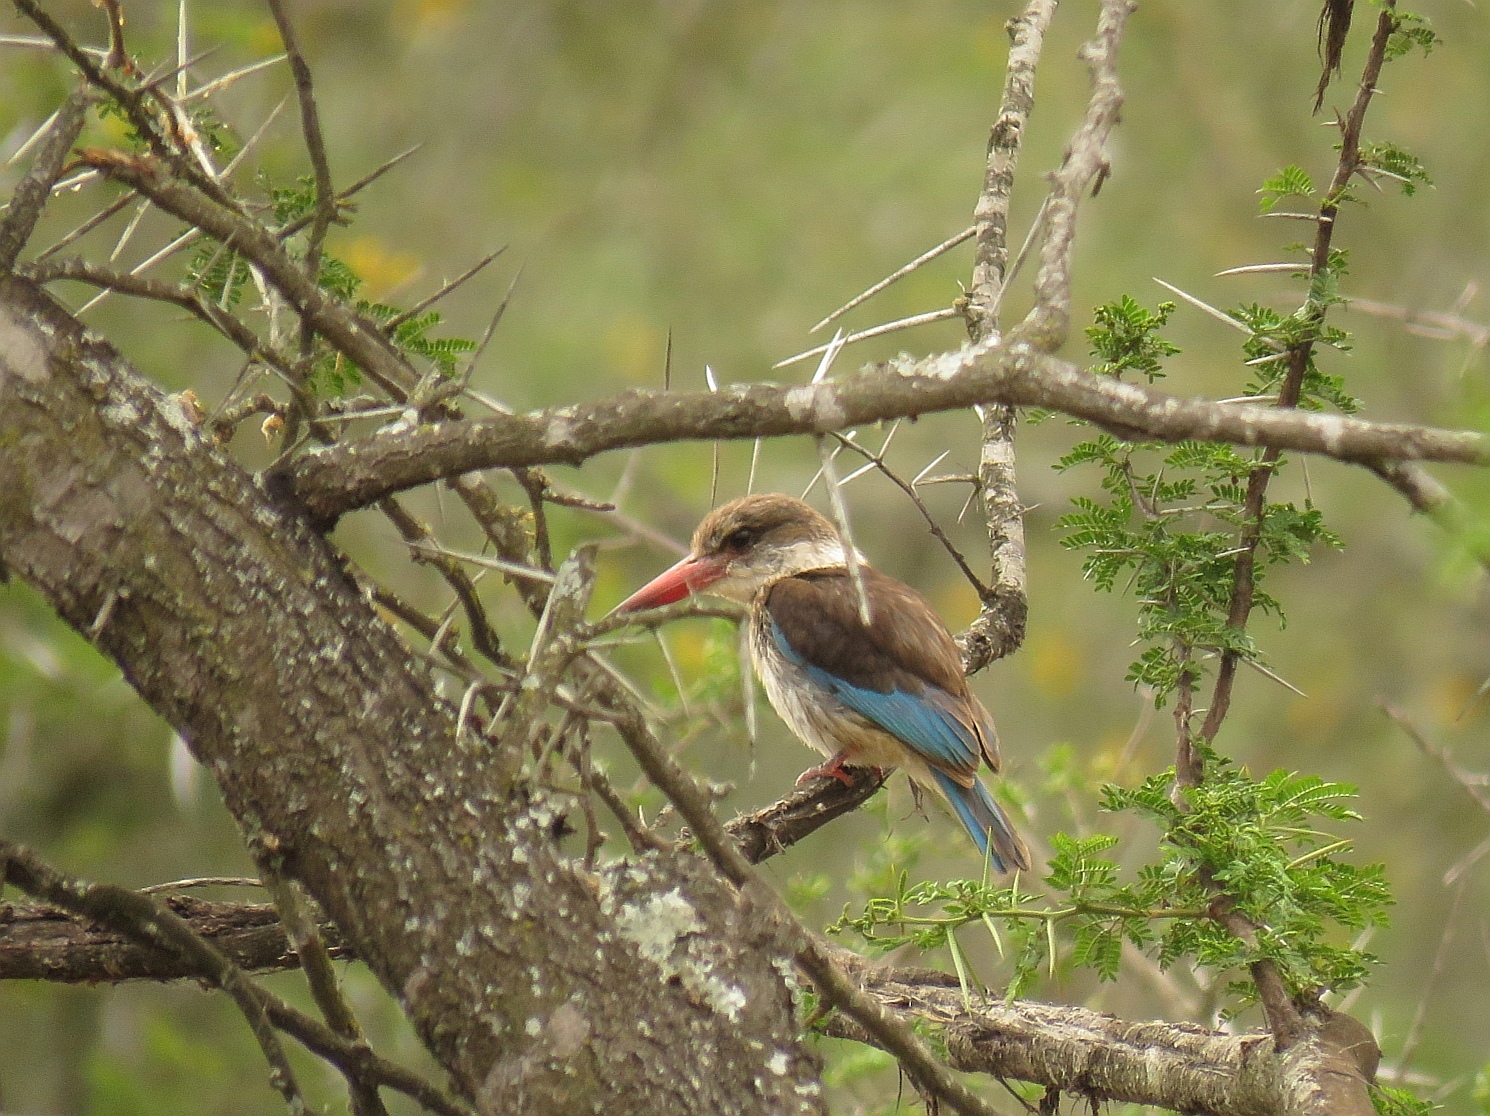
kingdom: Animalia
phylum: Chordata
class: Aves
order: Coraciiformes
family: Alcedinidae
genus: Halcyon
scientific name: Halcyon albiventris
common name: Brown-hooded kingfisher
